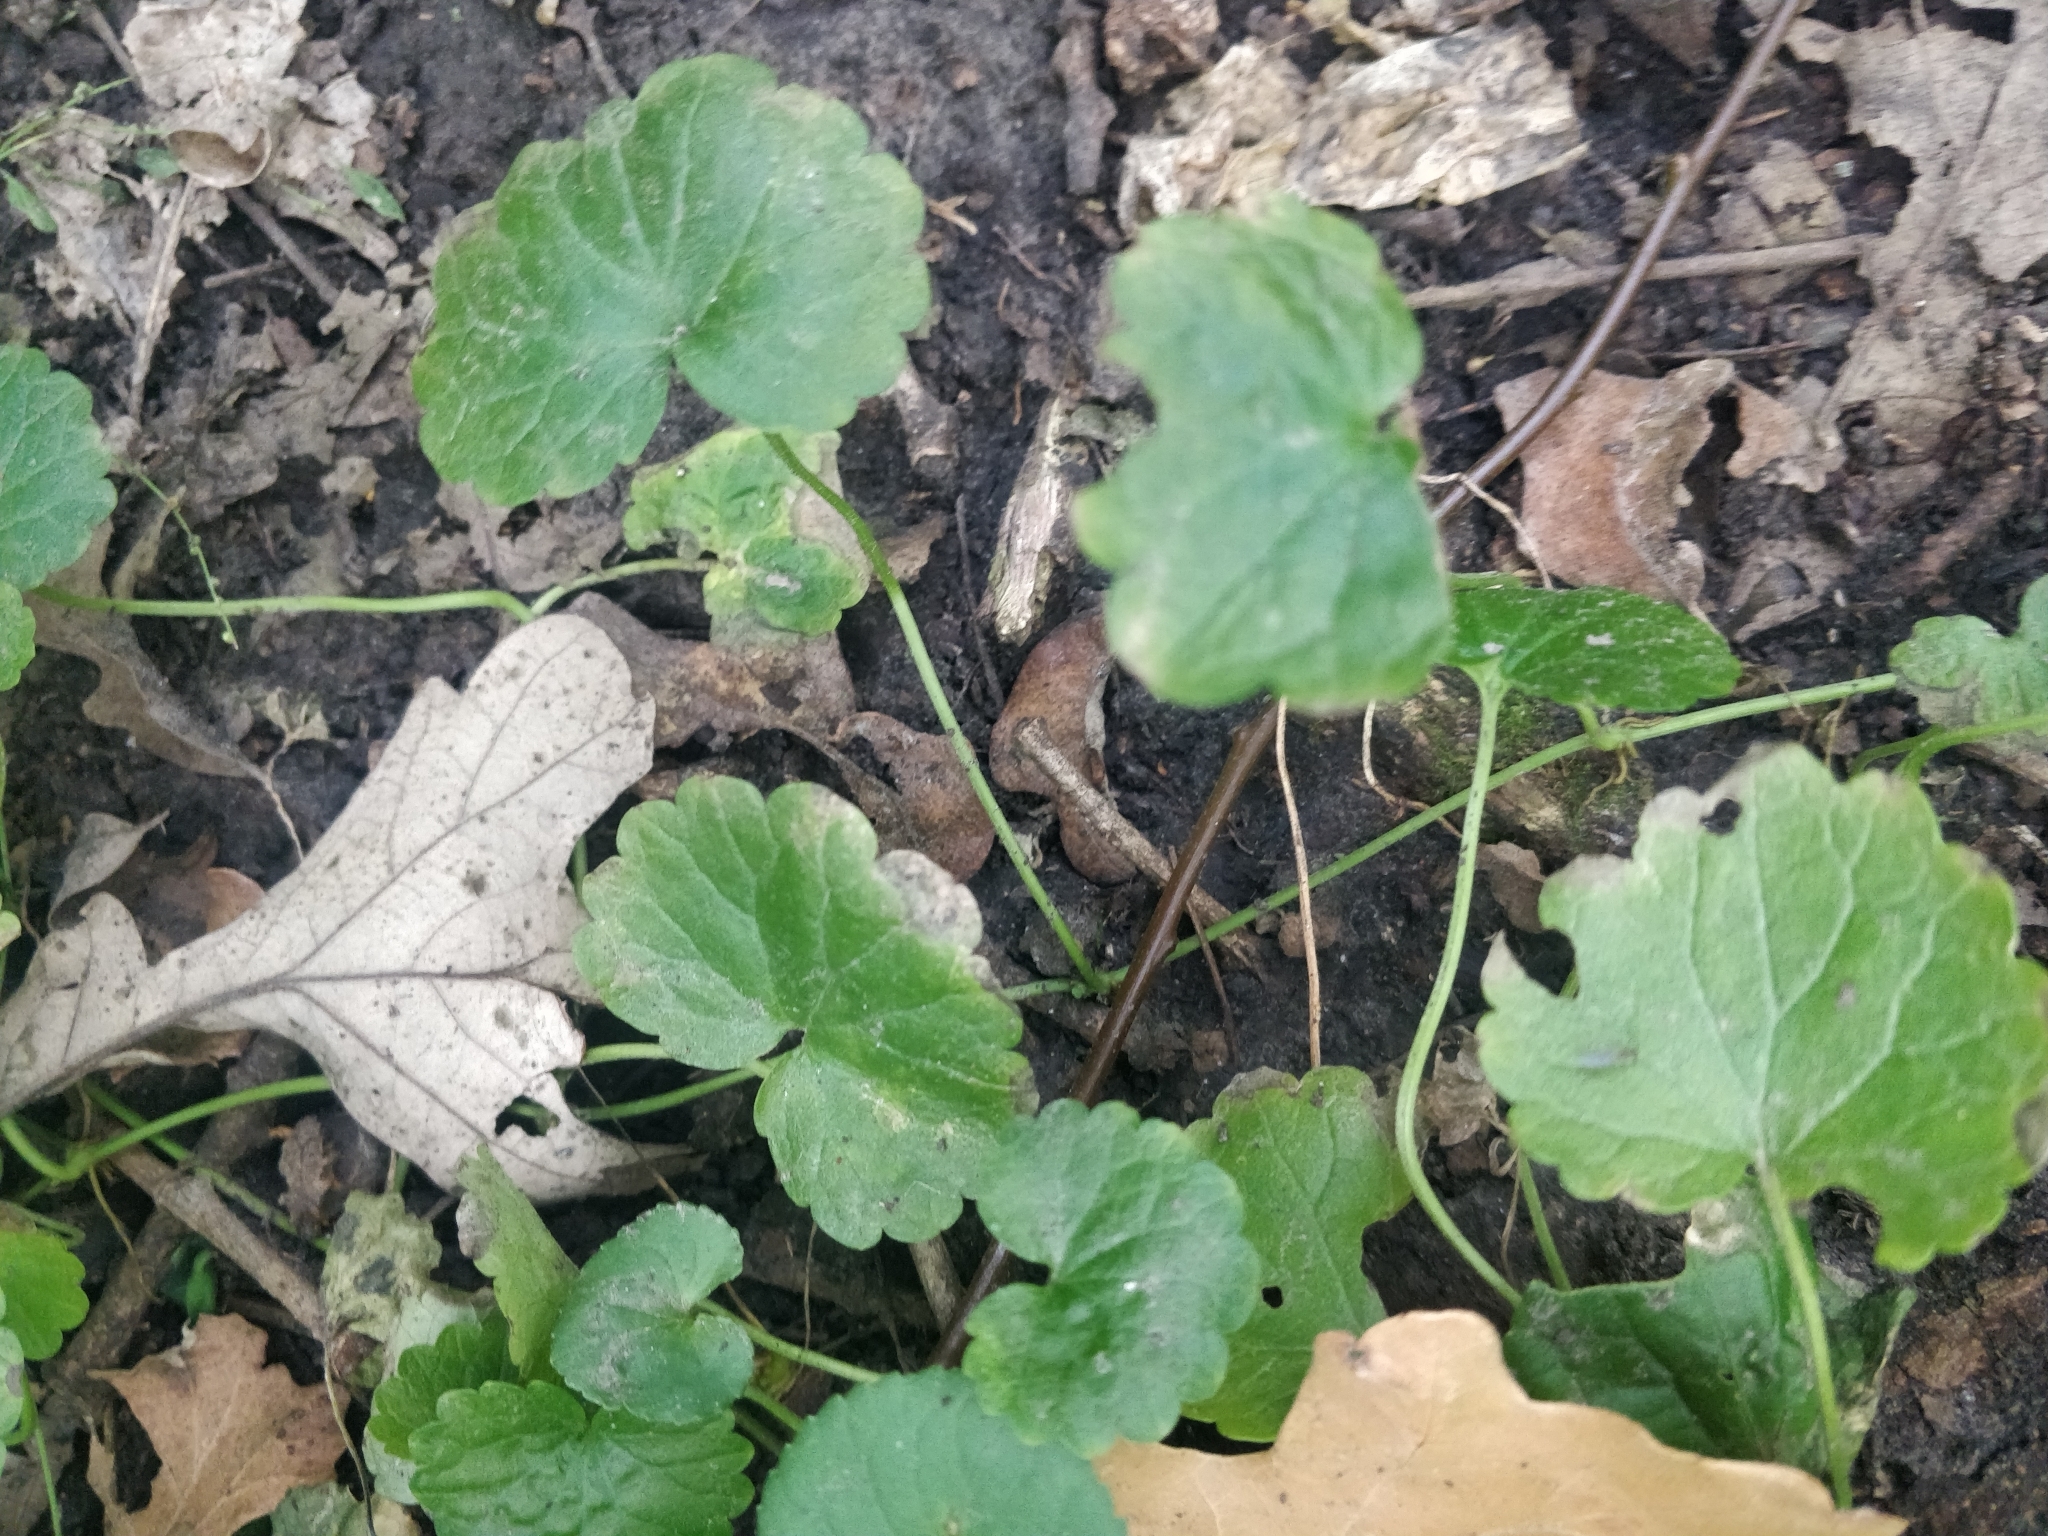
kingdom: Plantae
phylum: Tracheophyta
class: Magnoliopsida
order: Lamiales
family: Lamiaceae
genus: Glechoma
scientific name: Glechoma hederacea
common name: Ground ivy
